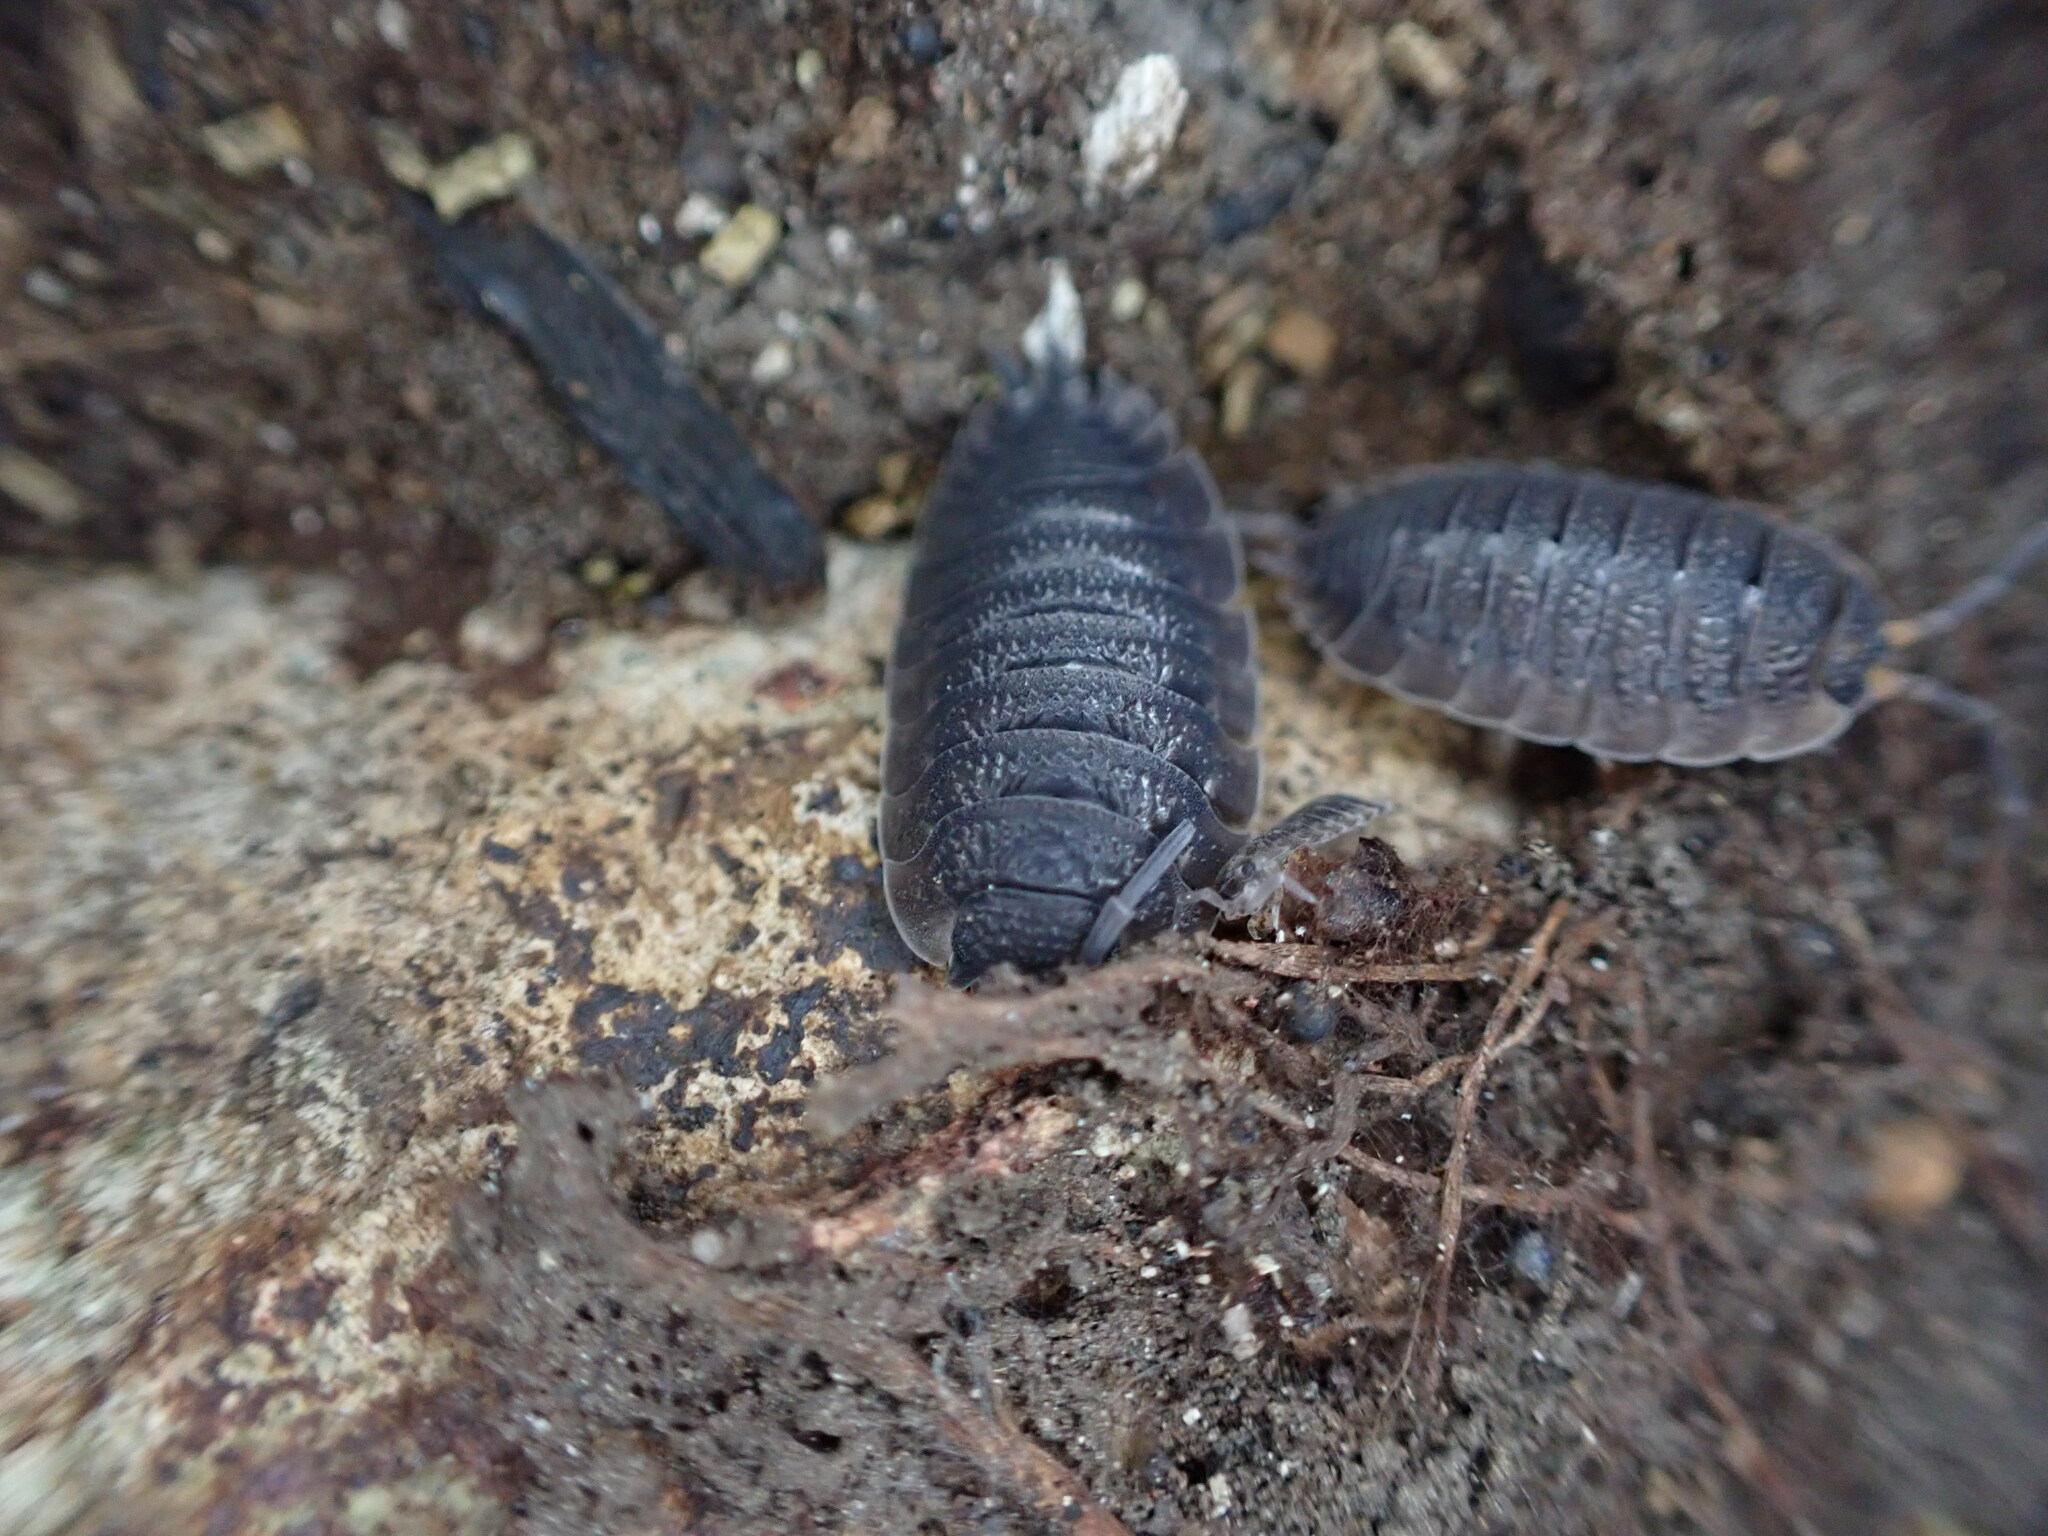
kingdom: Animalia
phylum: Arthropoda
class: Malacostraca
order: Isopoda
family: Porcellionidae
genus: Porcellio
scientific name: Porcellio scaber
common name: Common rough woodlouse
